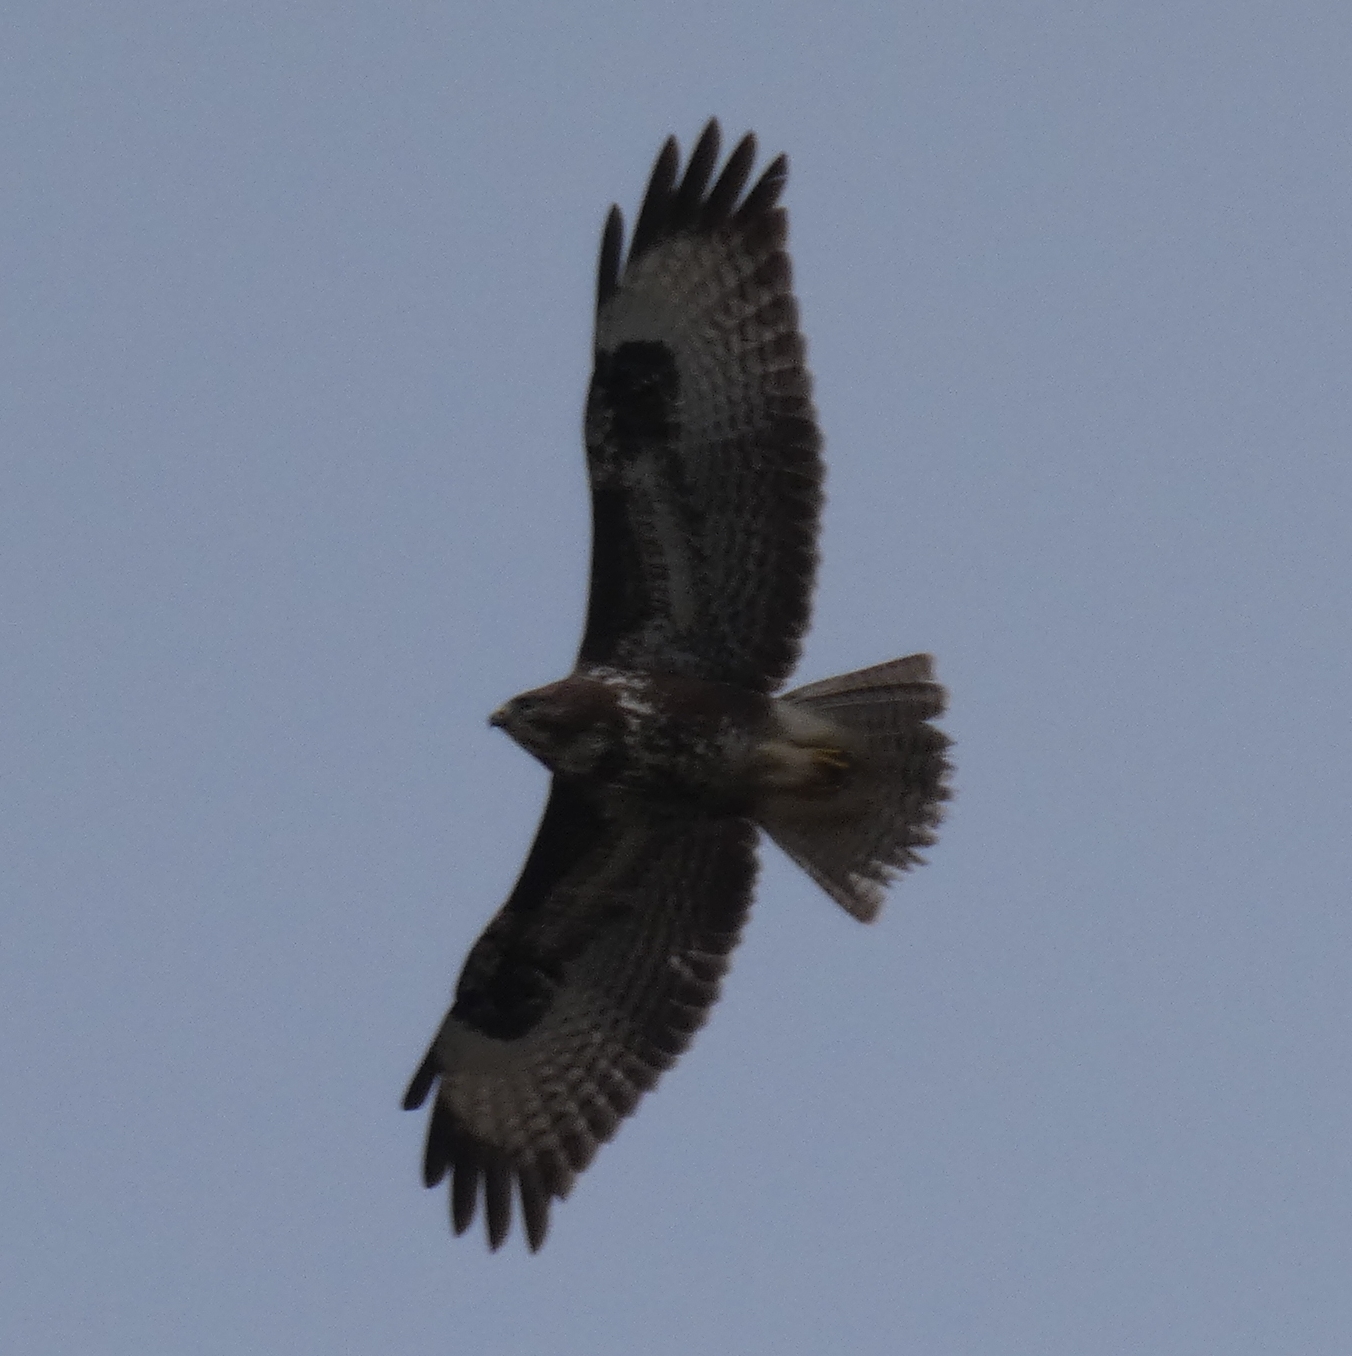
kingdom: Animalia
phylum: Chordata
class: Aves
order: Accipitriformes
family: Accipitridae
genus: Buteo
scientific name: Buteo buteo
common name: Common buzzard
